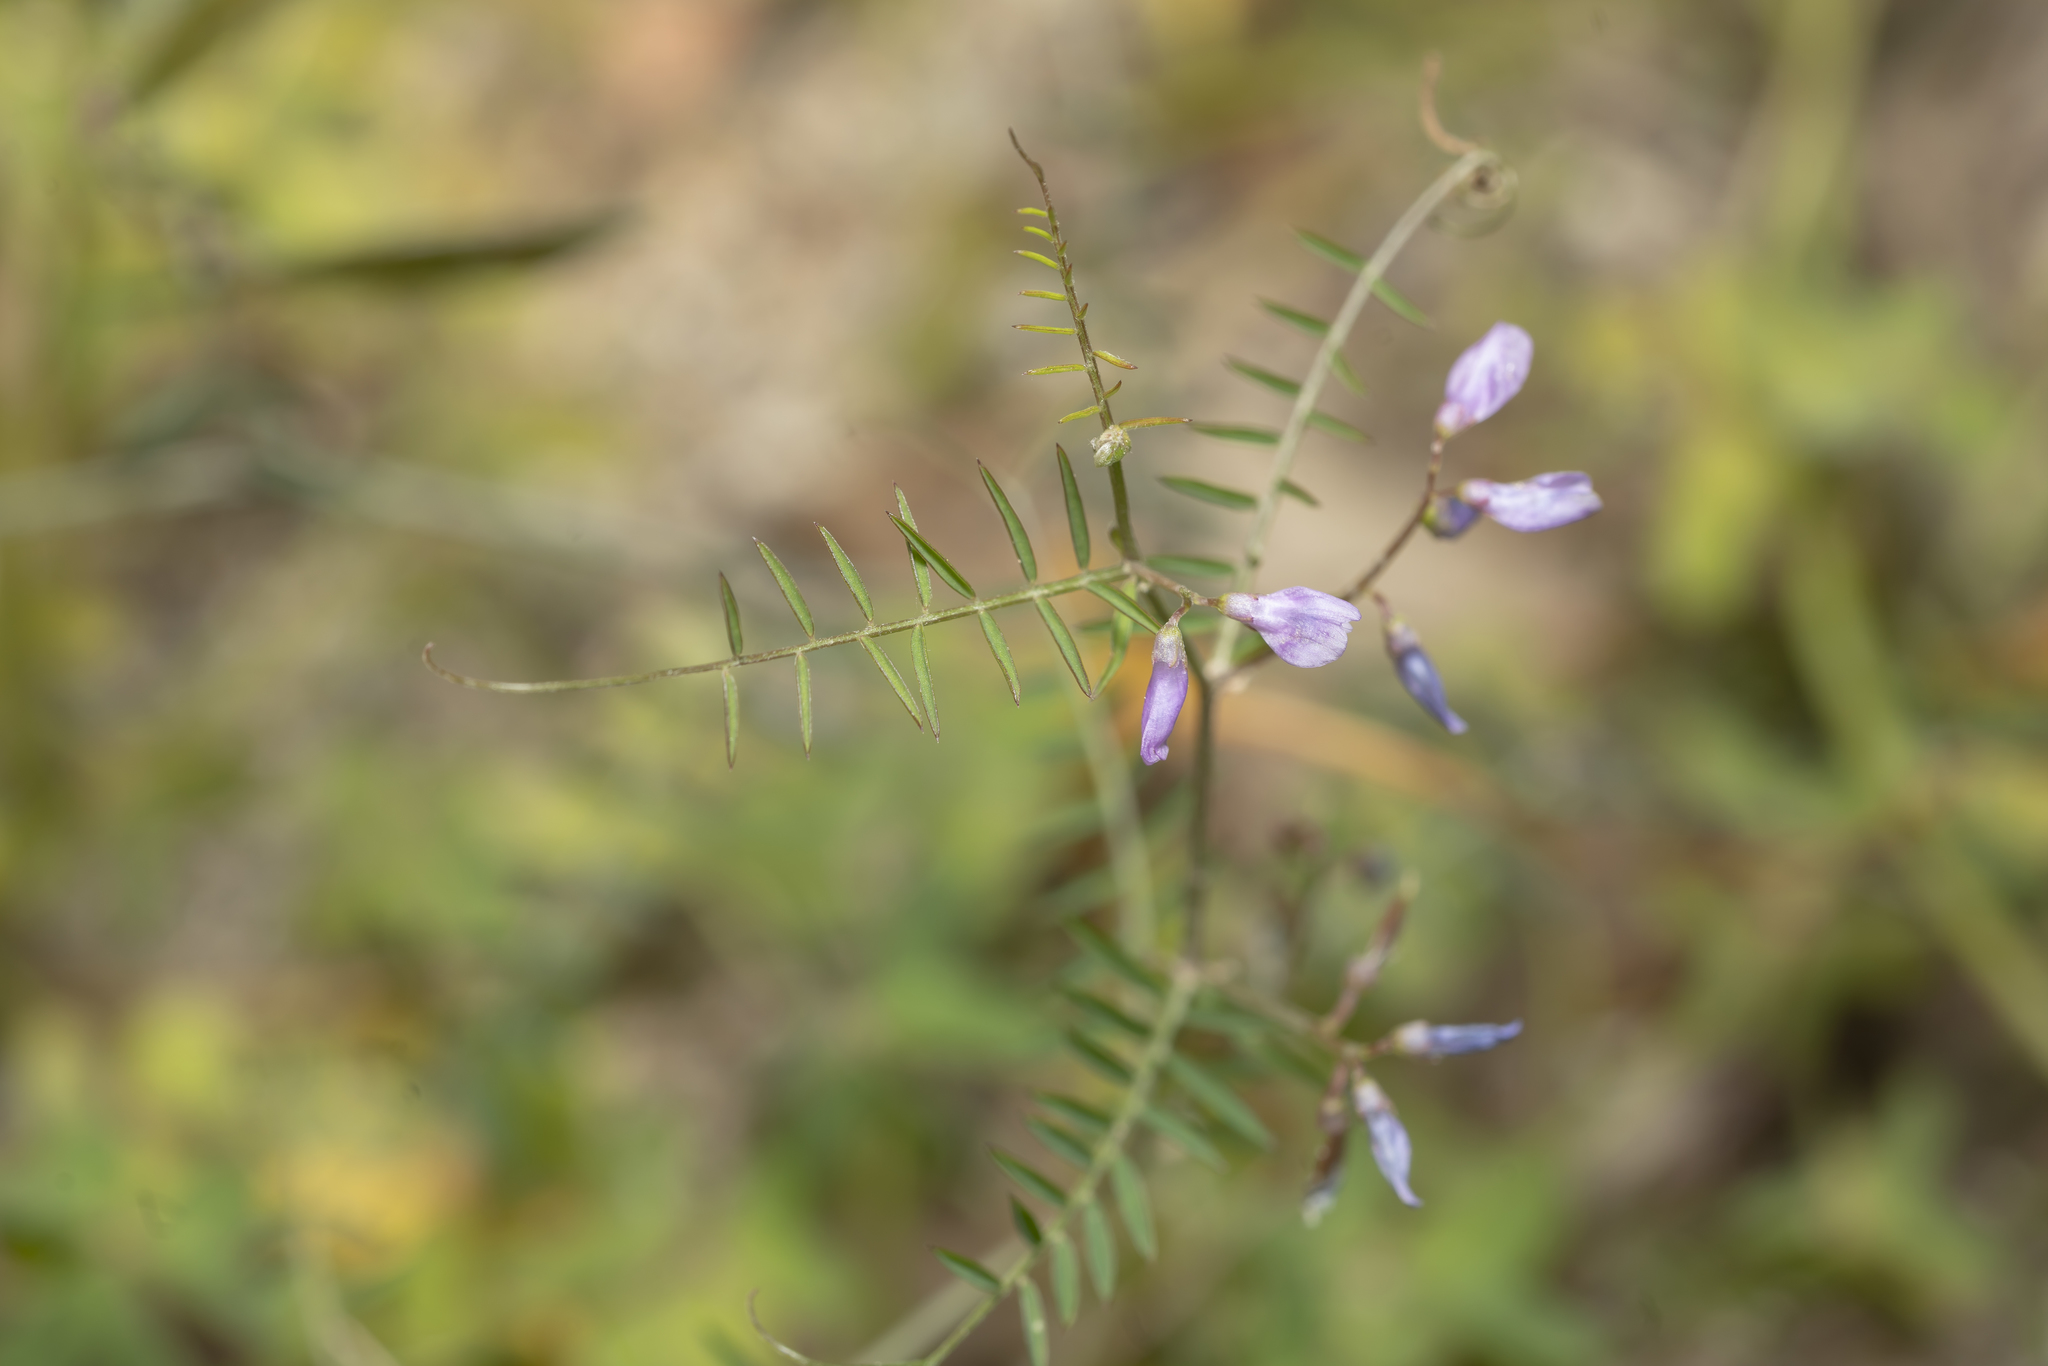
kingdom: Plantae
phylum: Tracheophyta
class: Magnoliopsida
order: Fabales
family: Fabaceae
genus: Vicia
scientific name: Vicia palaestina
